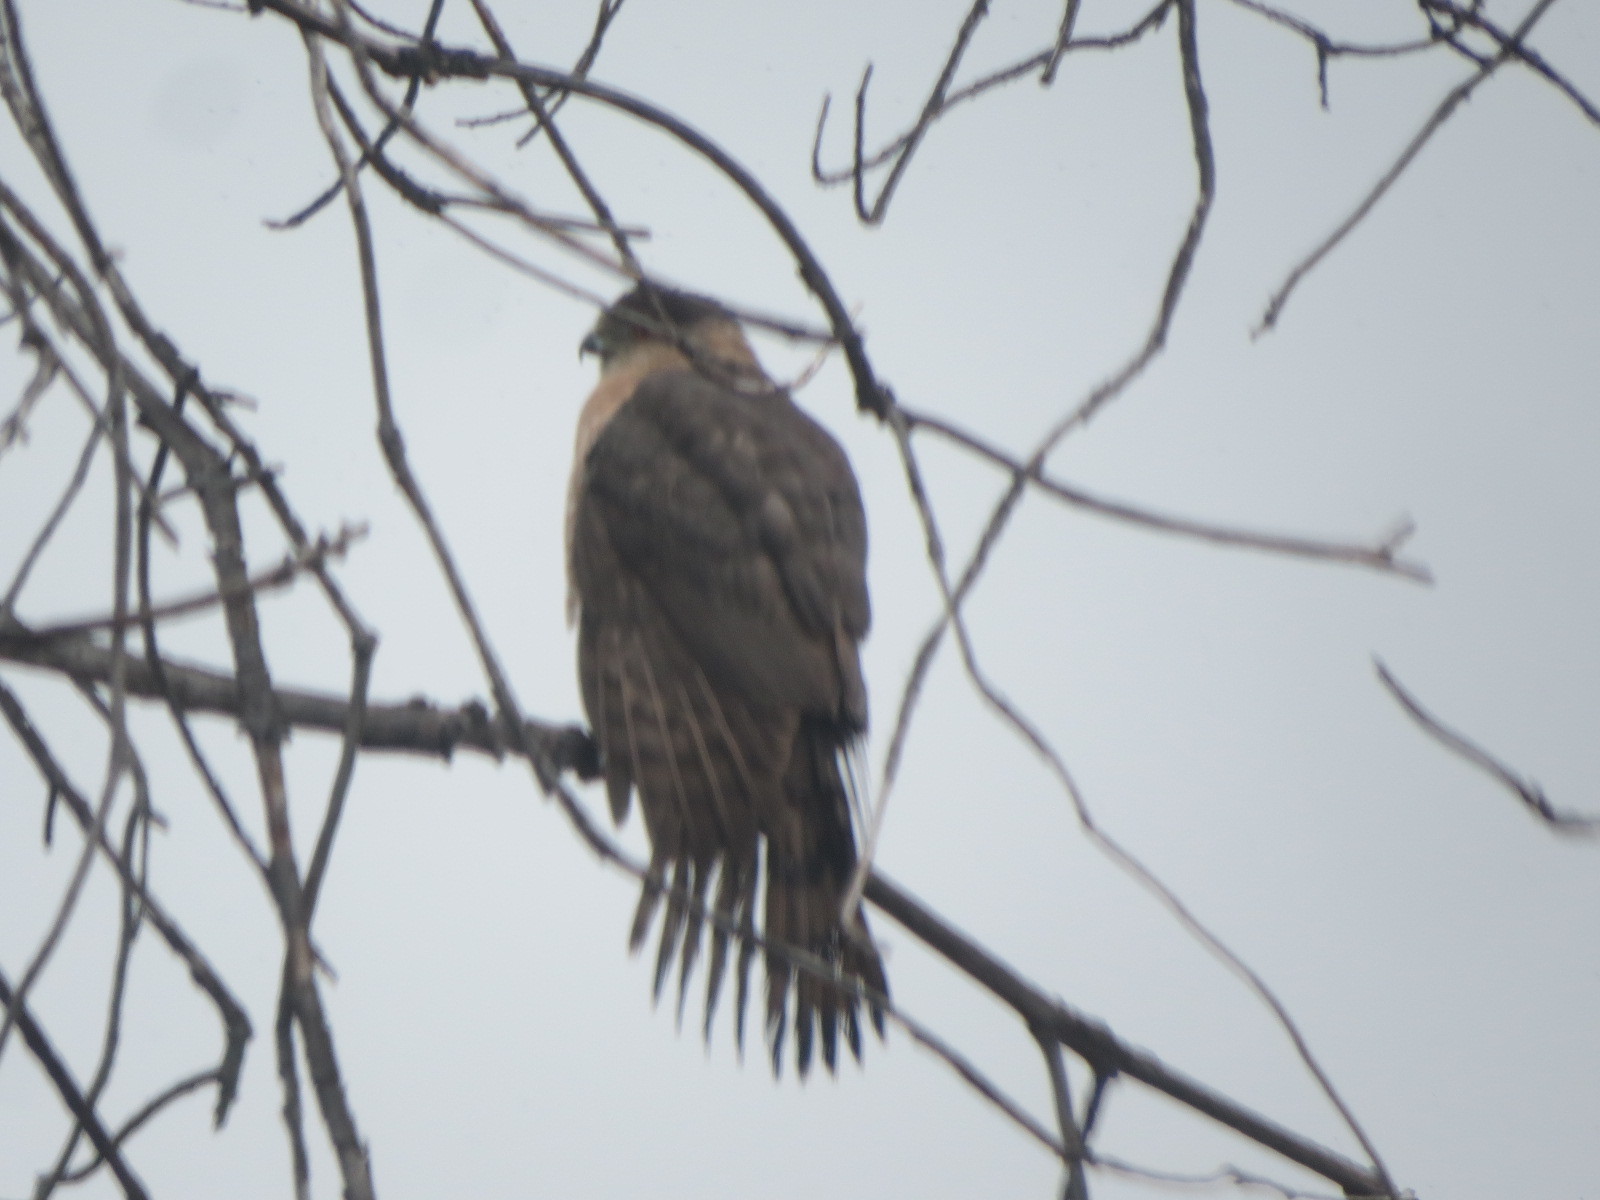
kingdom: Animalia
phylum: Chordata
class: Aves
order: Accipitriformes
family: Accipitridae
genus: Accipiter
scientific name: Accipiter cooperii
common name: Cooper's hawk
